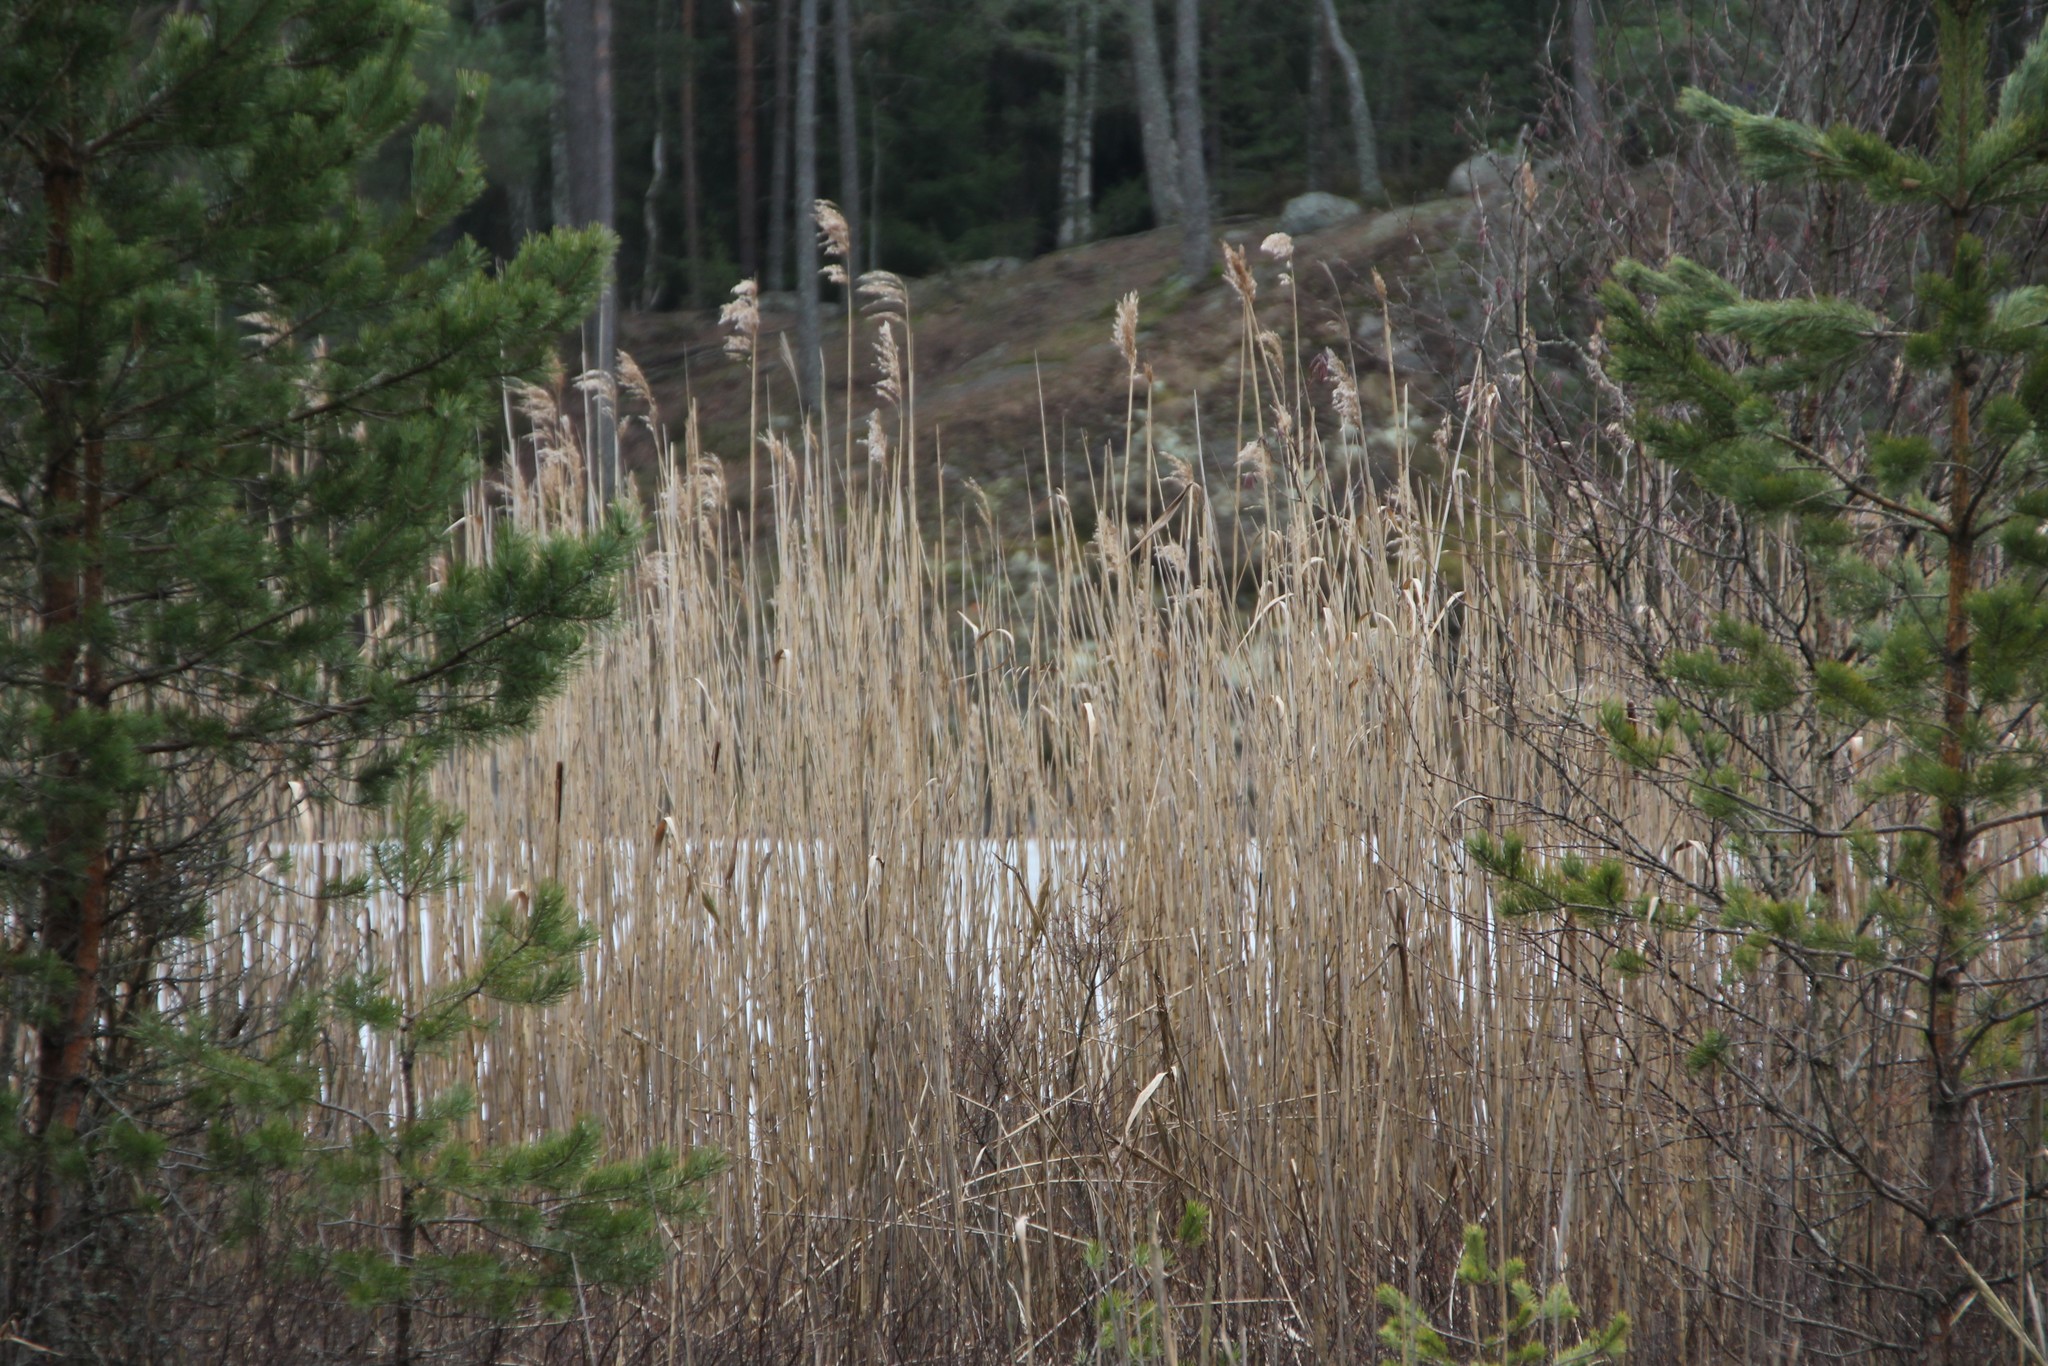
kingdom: Plantae
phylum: Tracheophyta
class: Liliopsida
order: Poales
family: Poaceae
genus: Phragmites
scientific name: Phragmites australis
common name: Common reed
